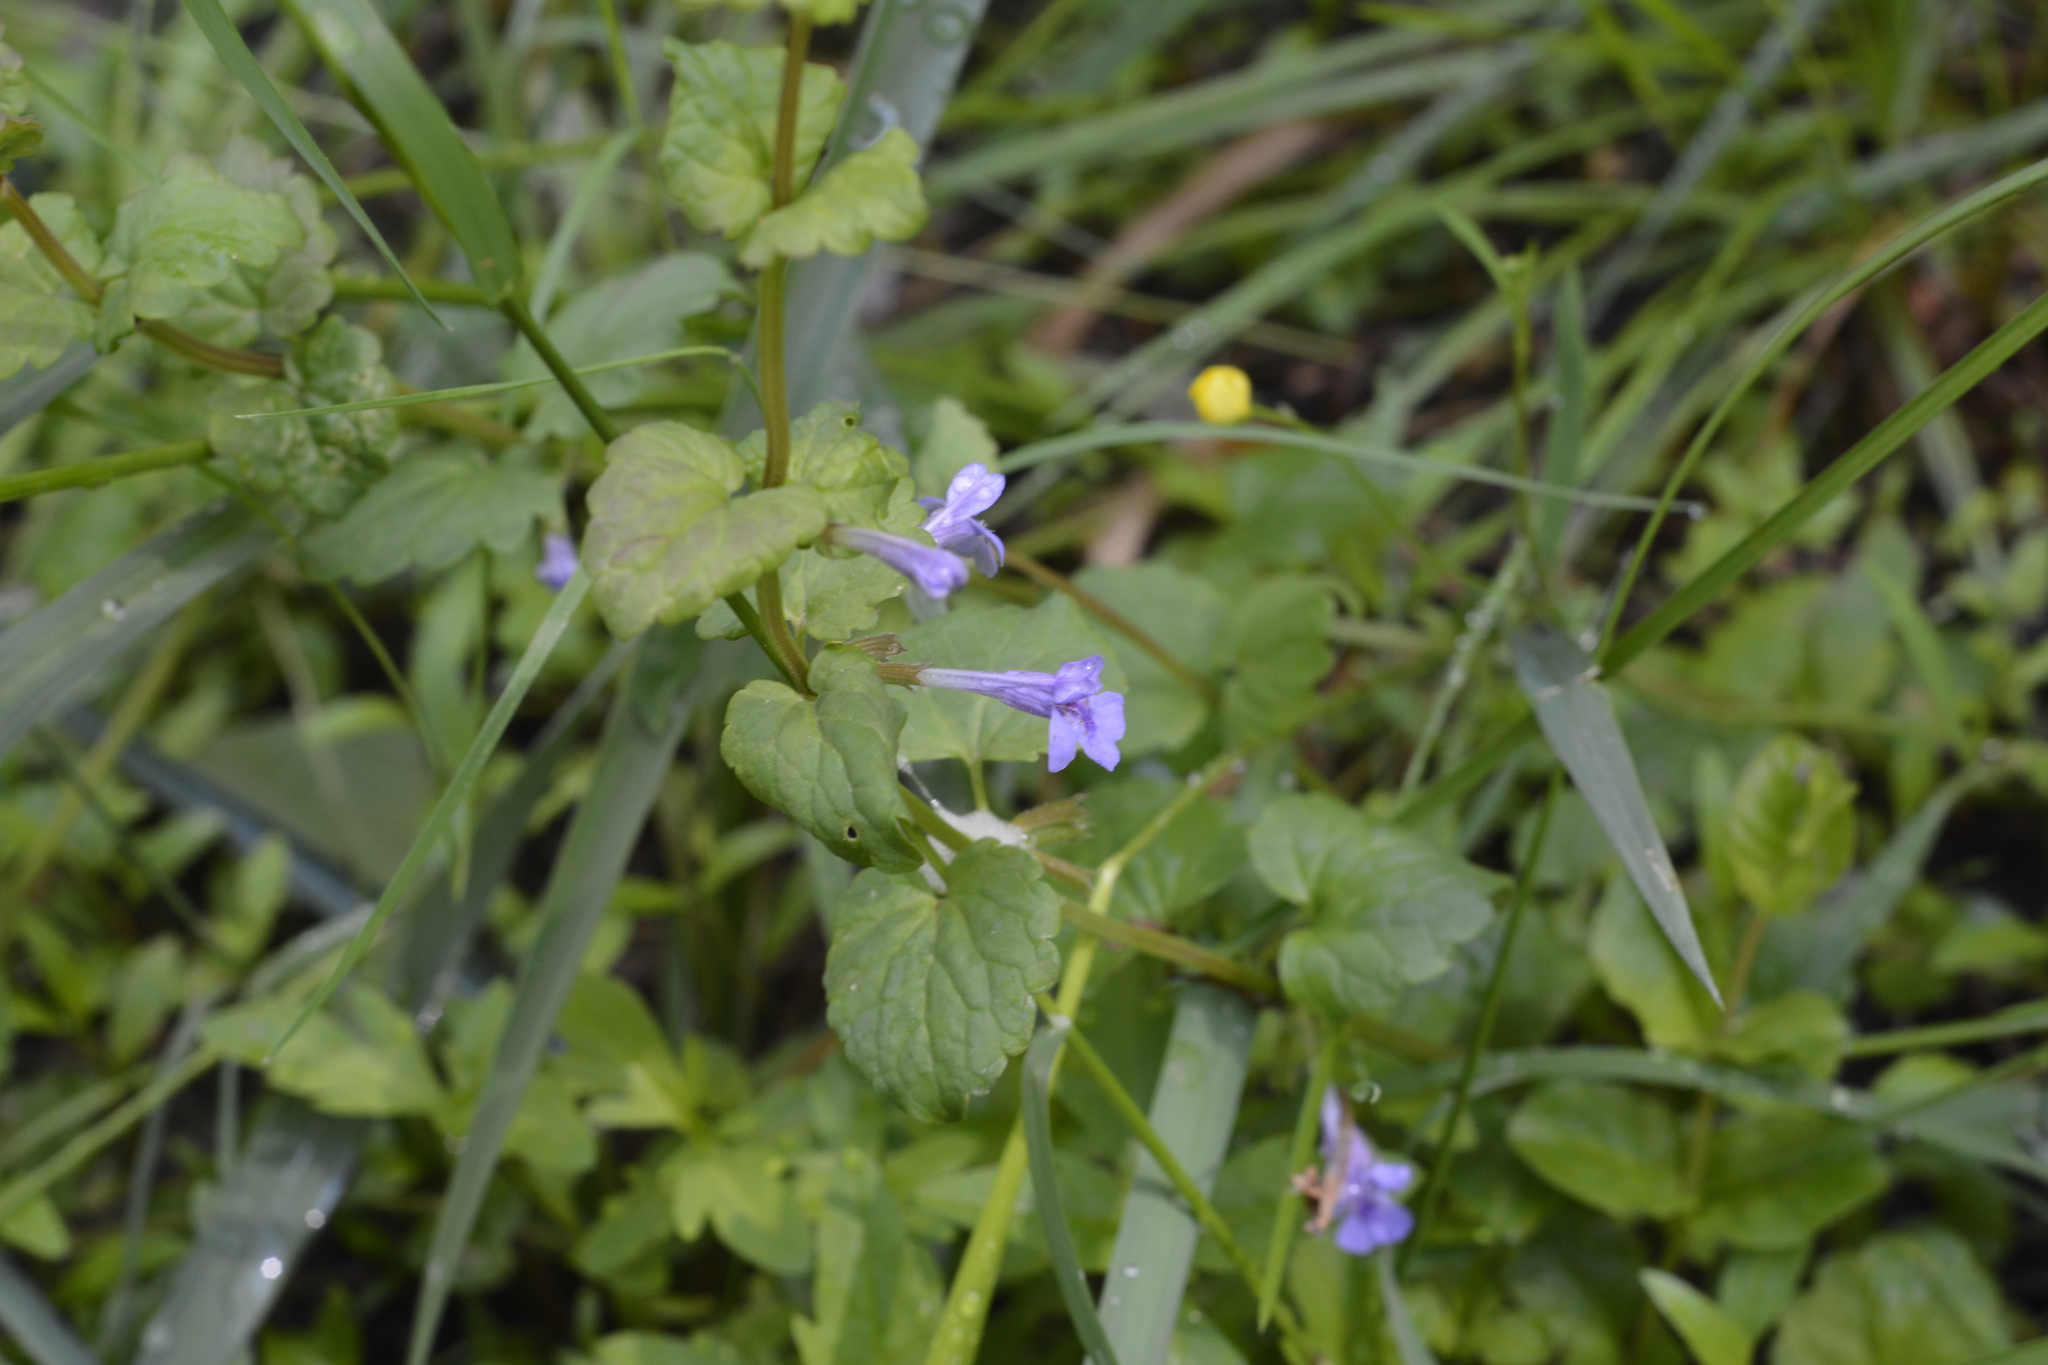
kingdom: Plantae
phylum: Tracheophyta
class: Magnoliopsida
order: Lamiales
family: Lamiaceae
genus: Glechoma
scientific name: Glechoma hederacea
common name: Ground ivy
